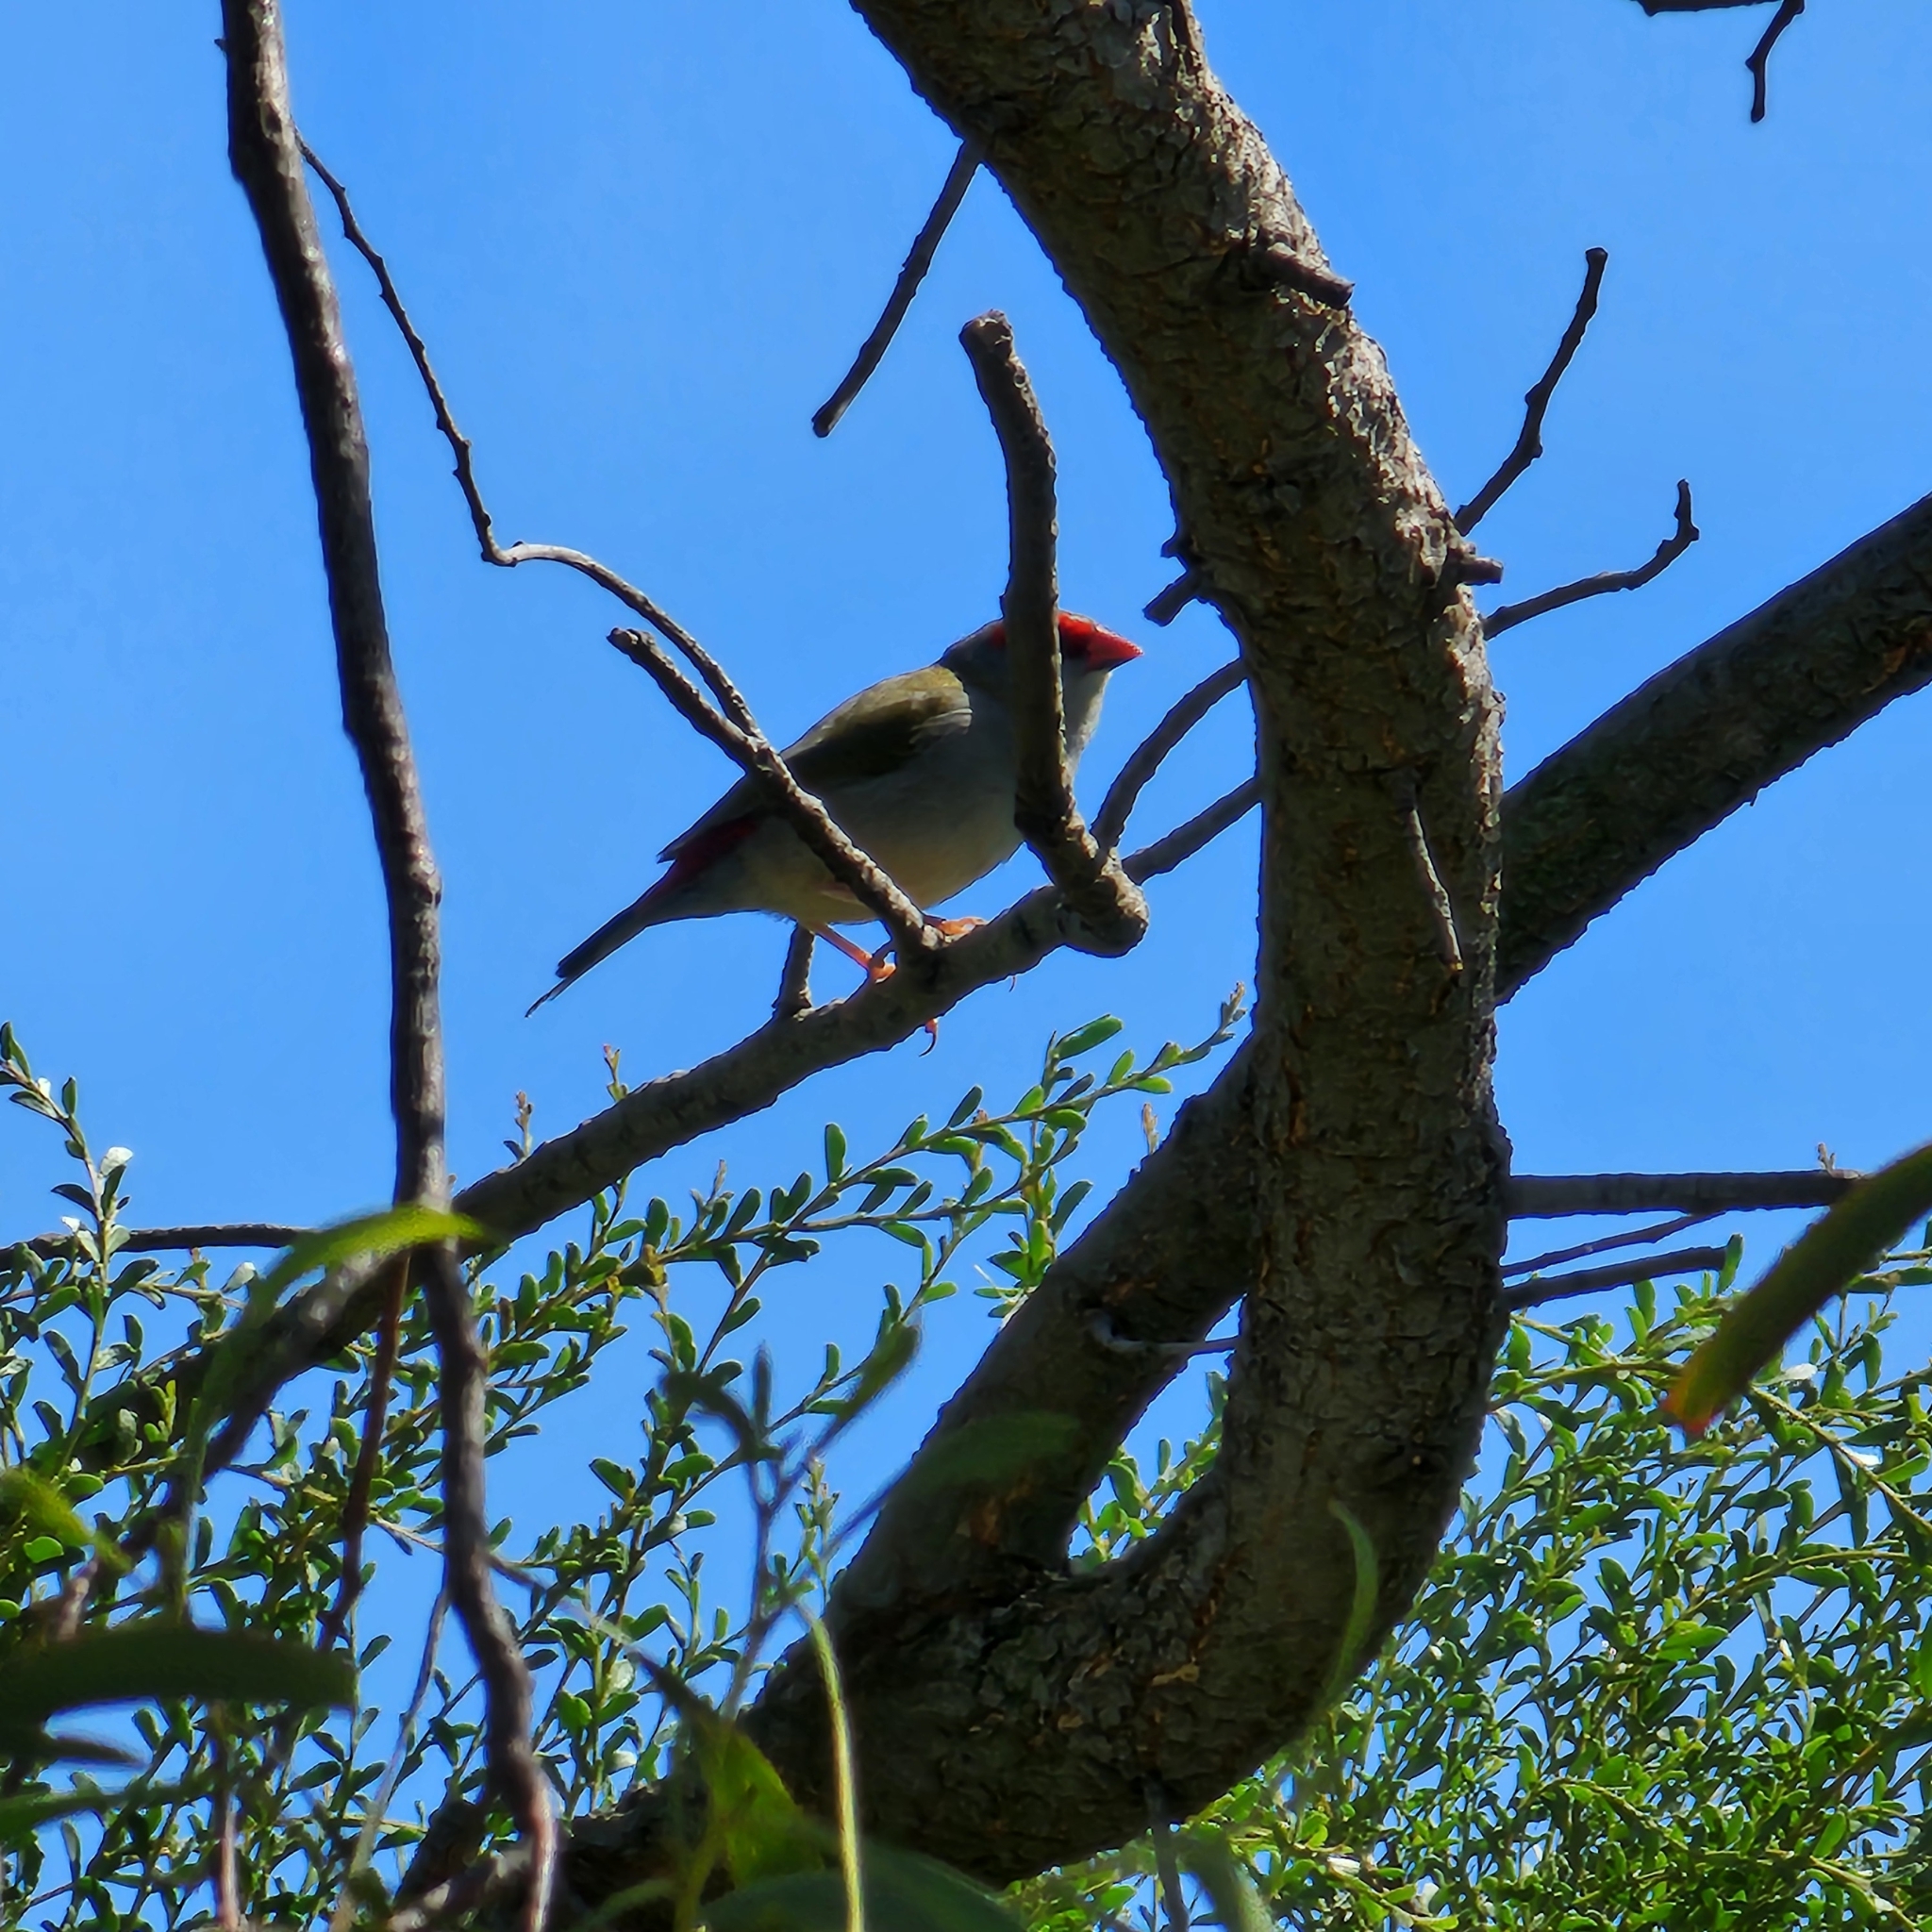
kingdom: Animalia
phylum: Chordata
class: Aves
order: Passeriformes
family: Estrildidae
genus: Neochmia
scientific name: Neochmia temporalis
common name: Red-browed finch
